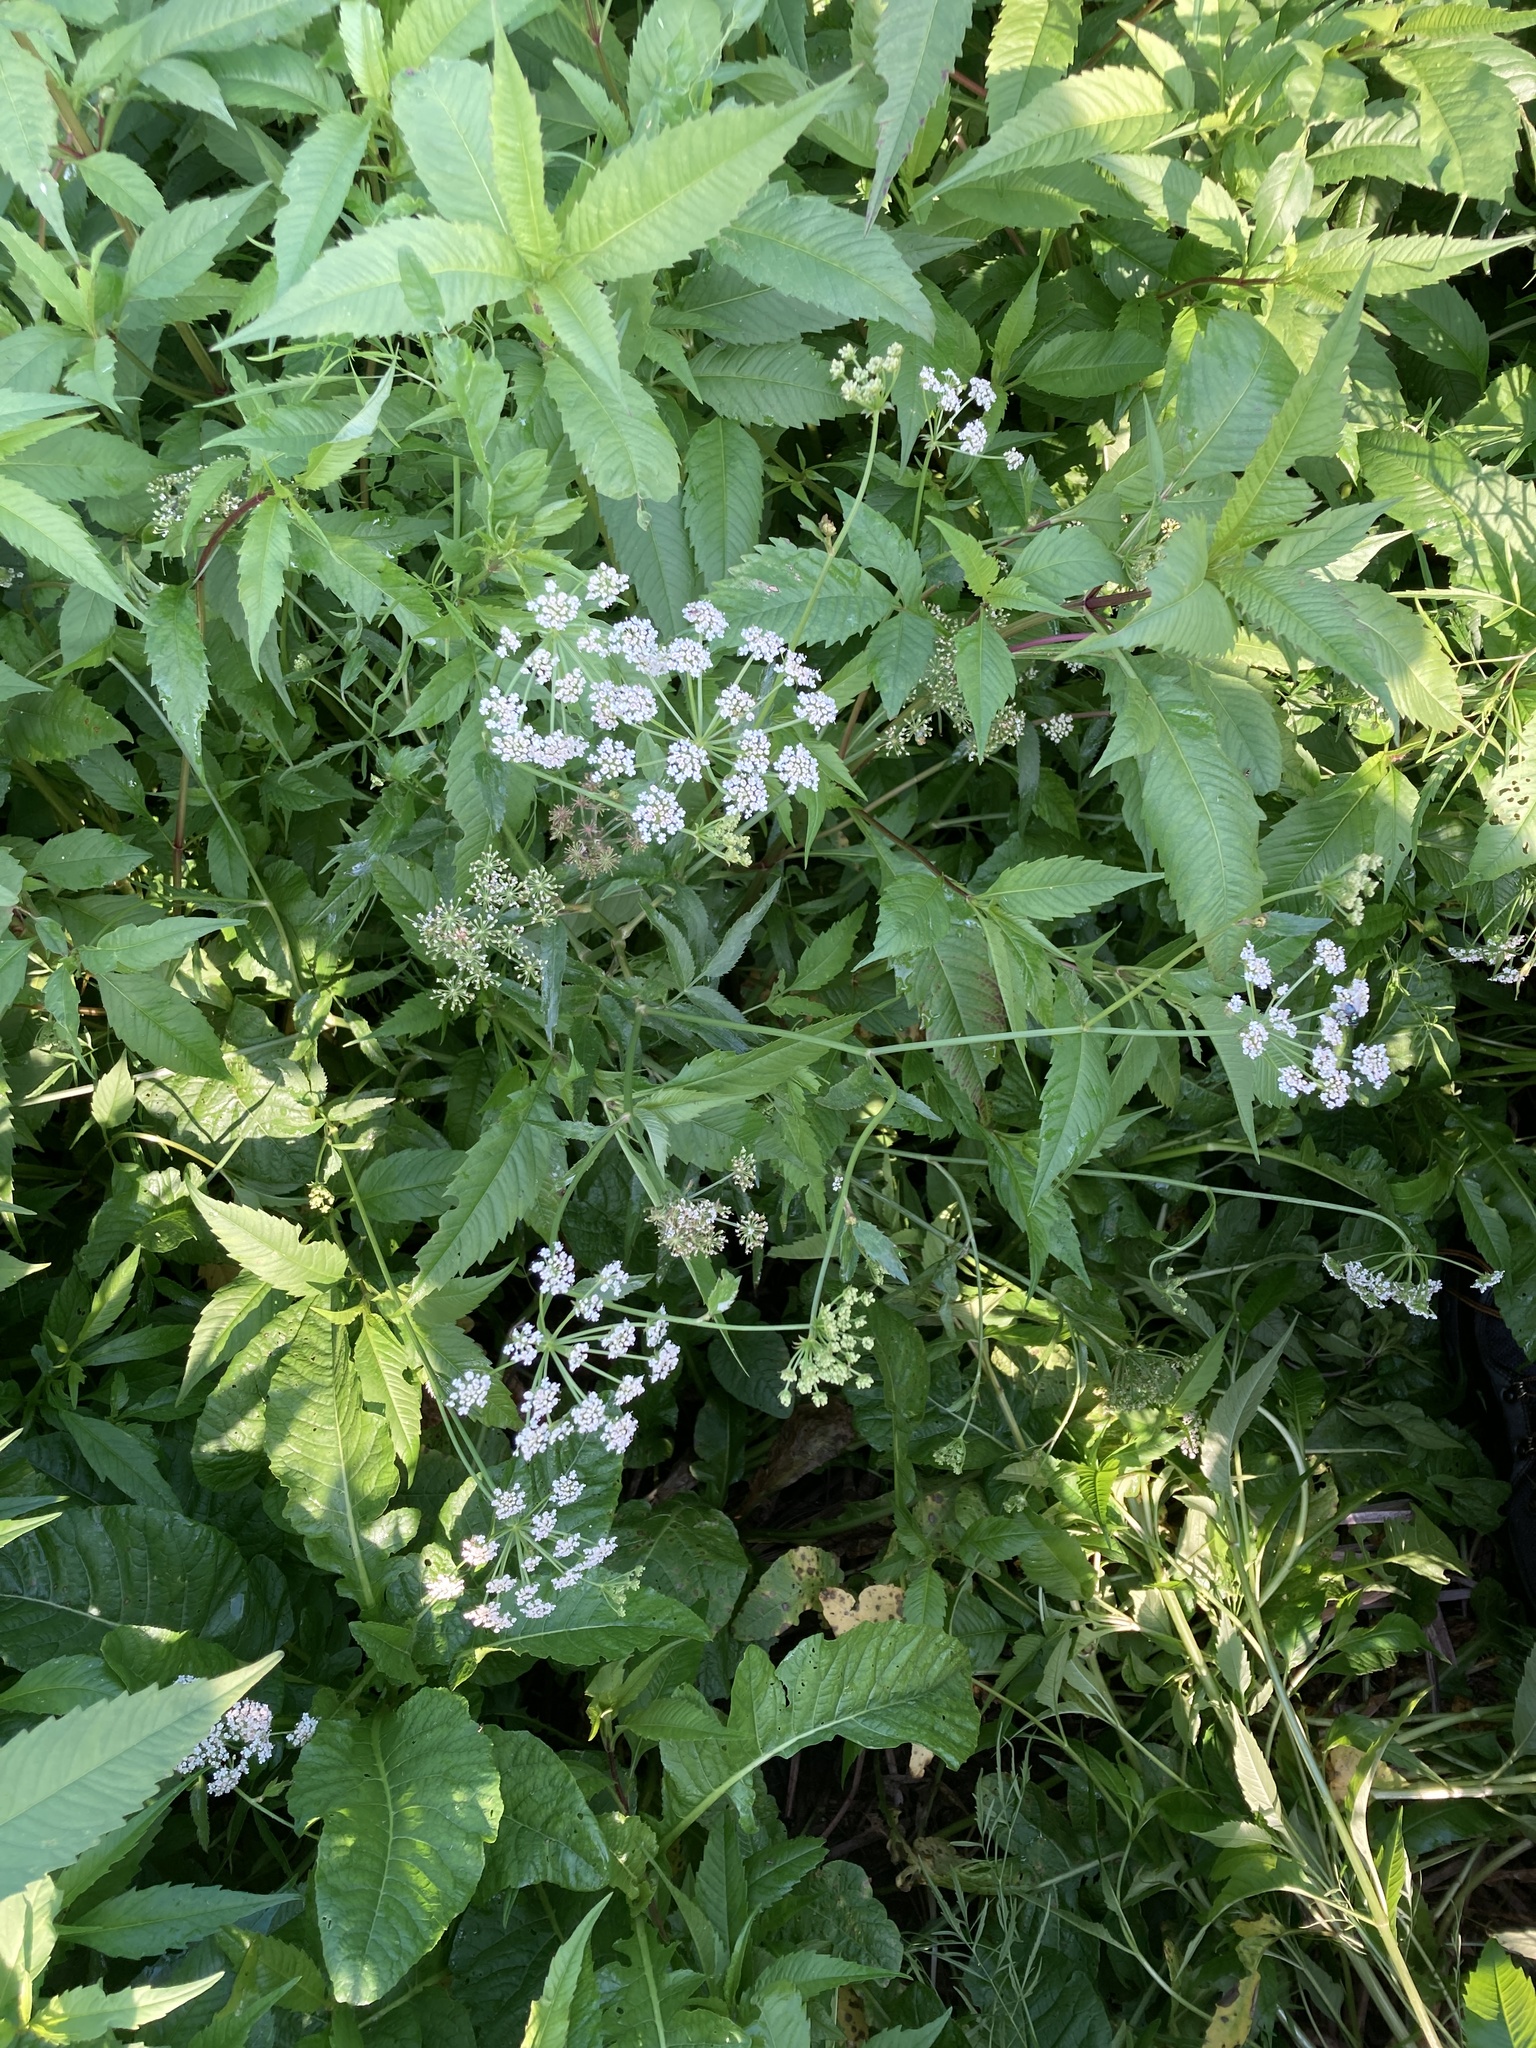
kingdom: Plantae
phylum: Tracheophyta
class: Magnoliopsida
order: Apiales
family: Apiaceae
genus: Sium
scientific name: Sium suave
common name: Hemlock water-parsnip
